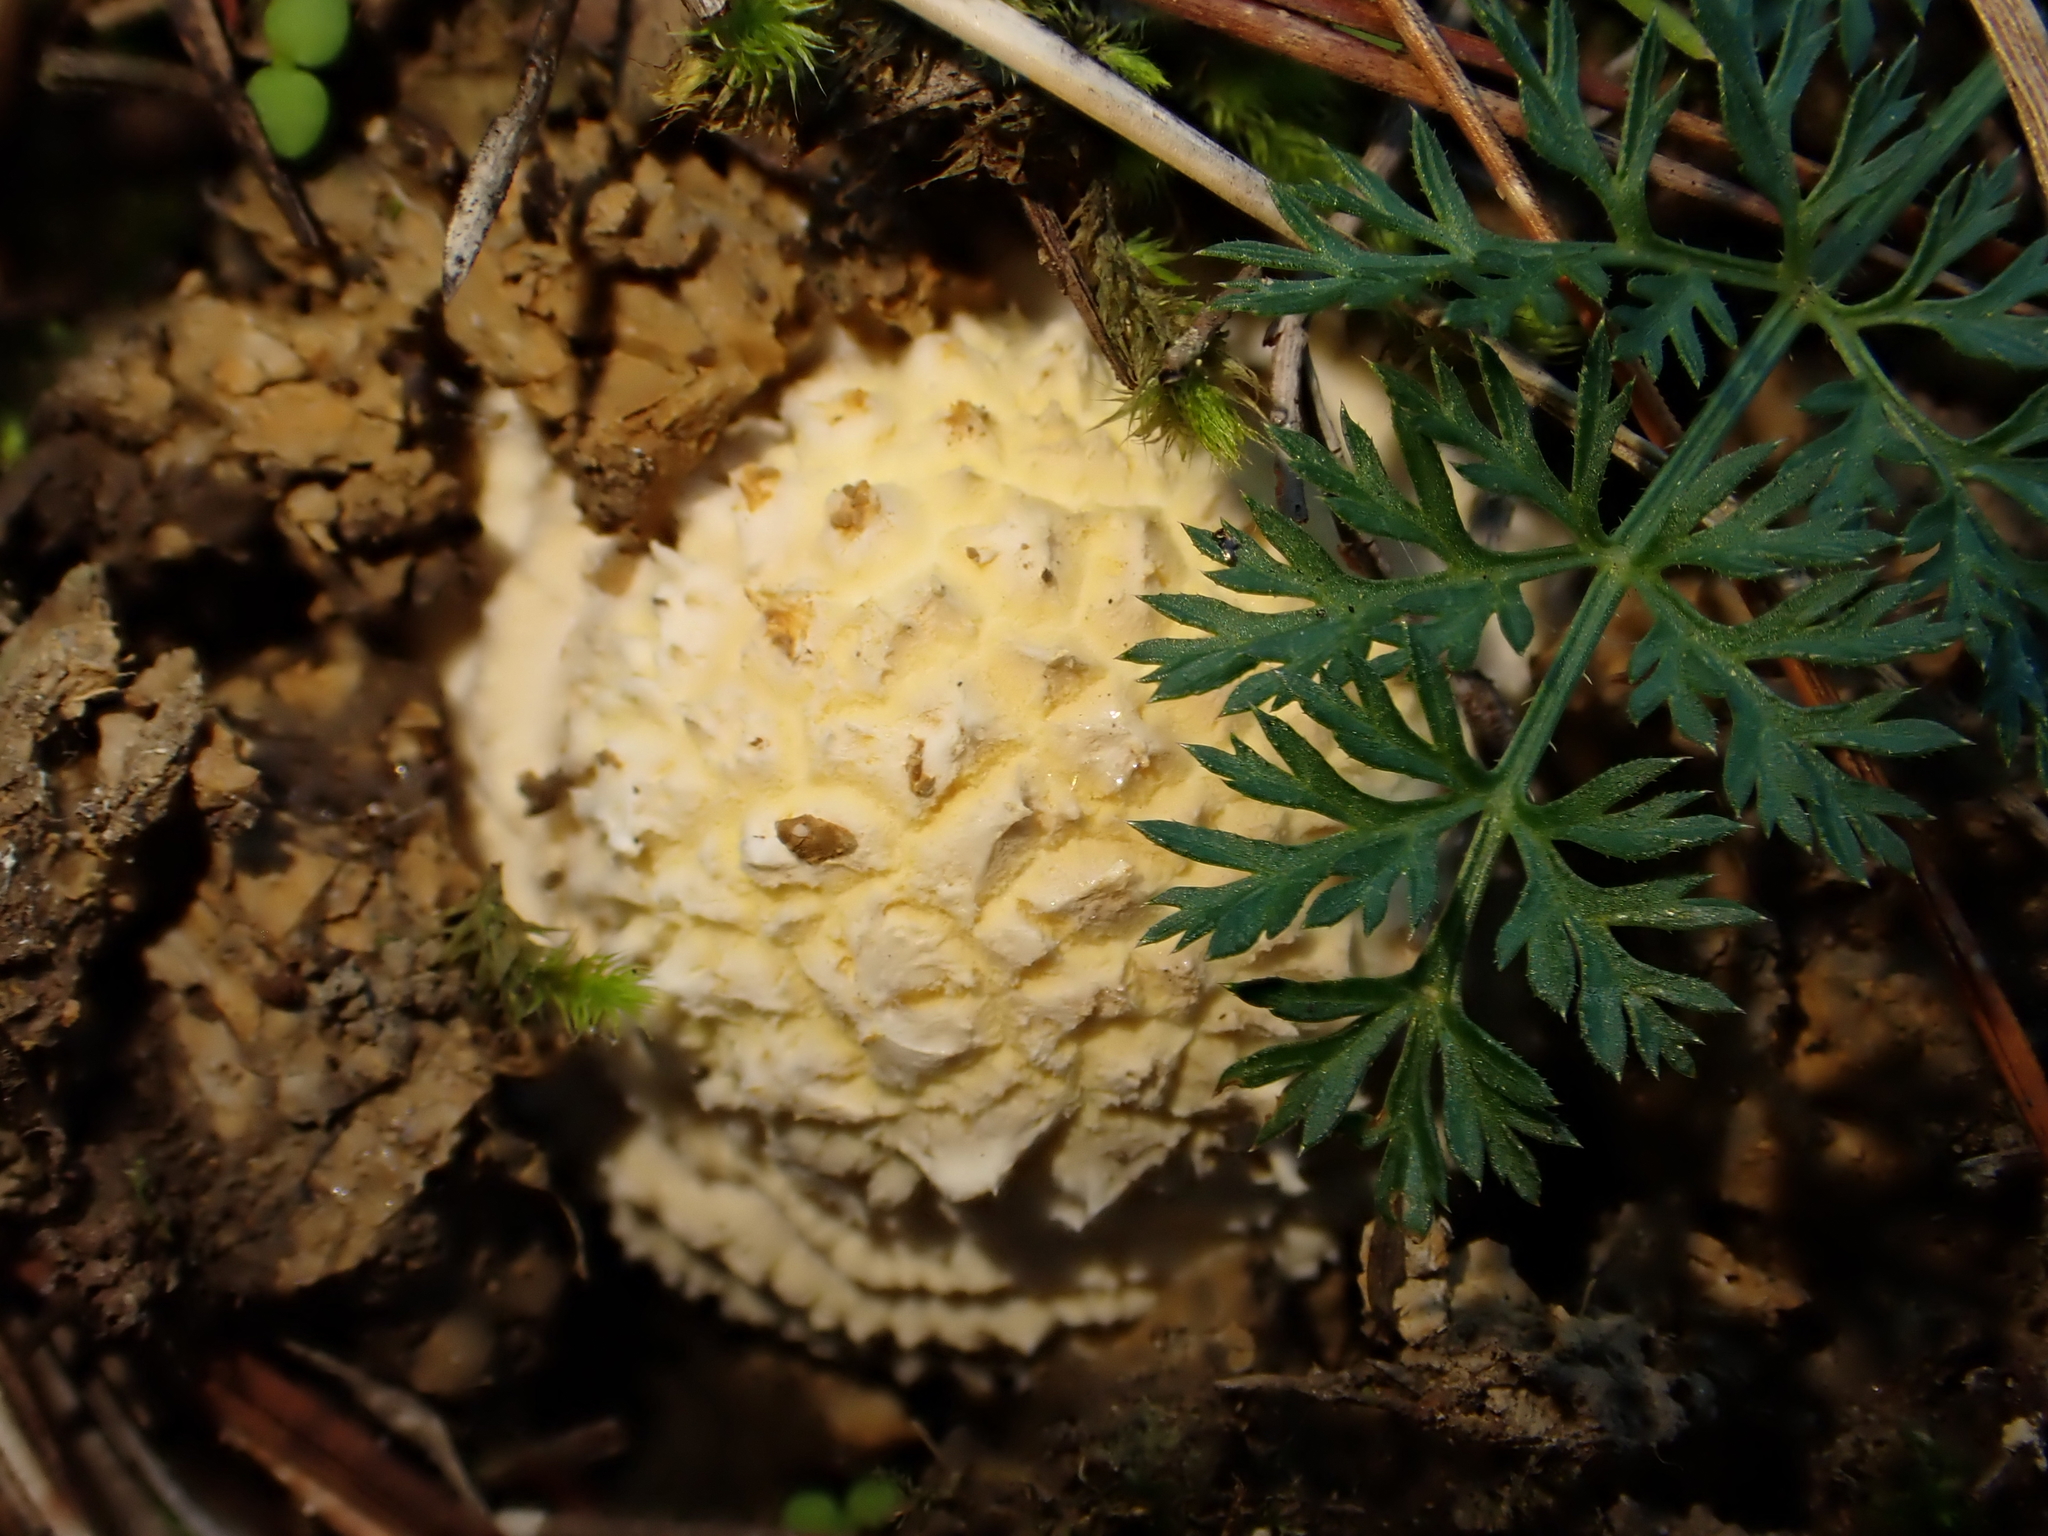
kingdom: Fungi
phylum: Basidiomycota
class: Agaricomycetes
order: Agaricales
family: Amanitaceae
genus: Amanita
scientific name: Amanita muscaria
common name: Fly agaric
